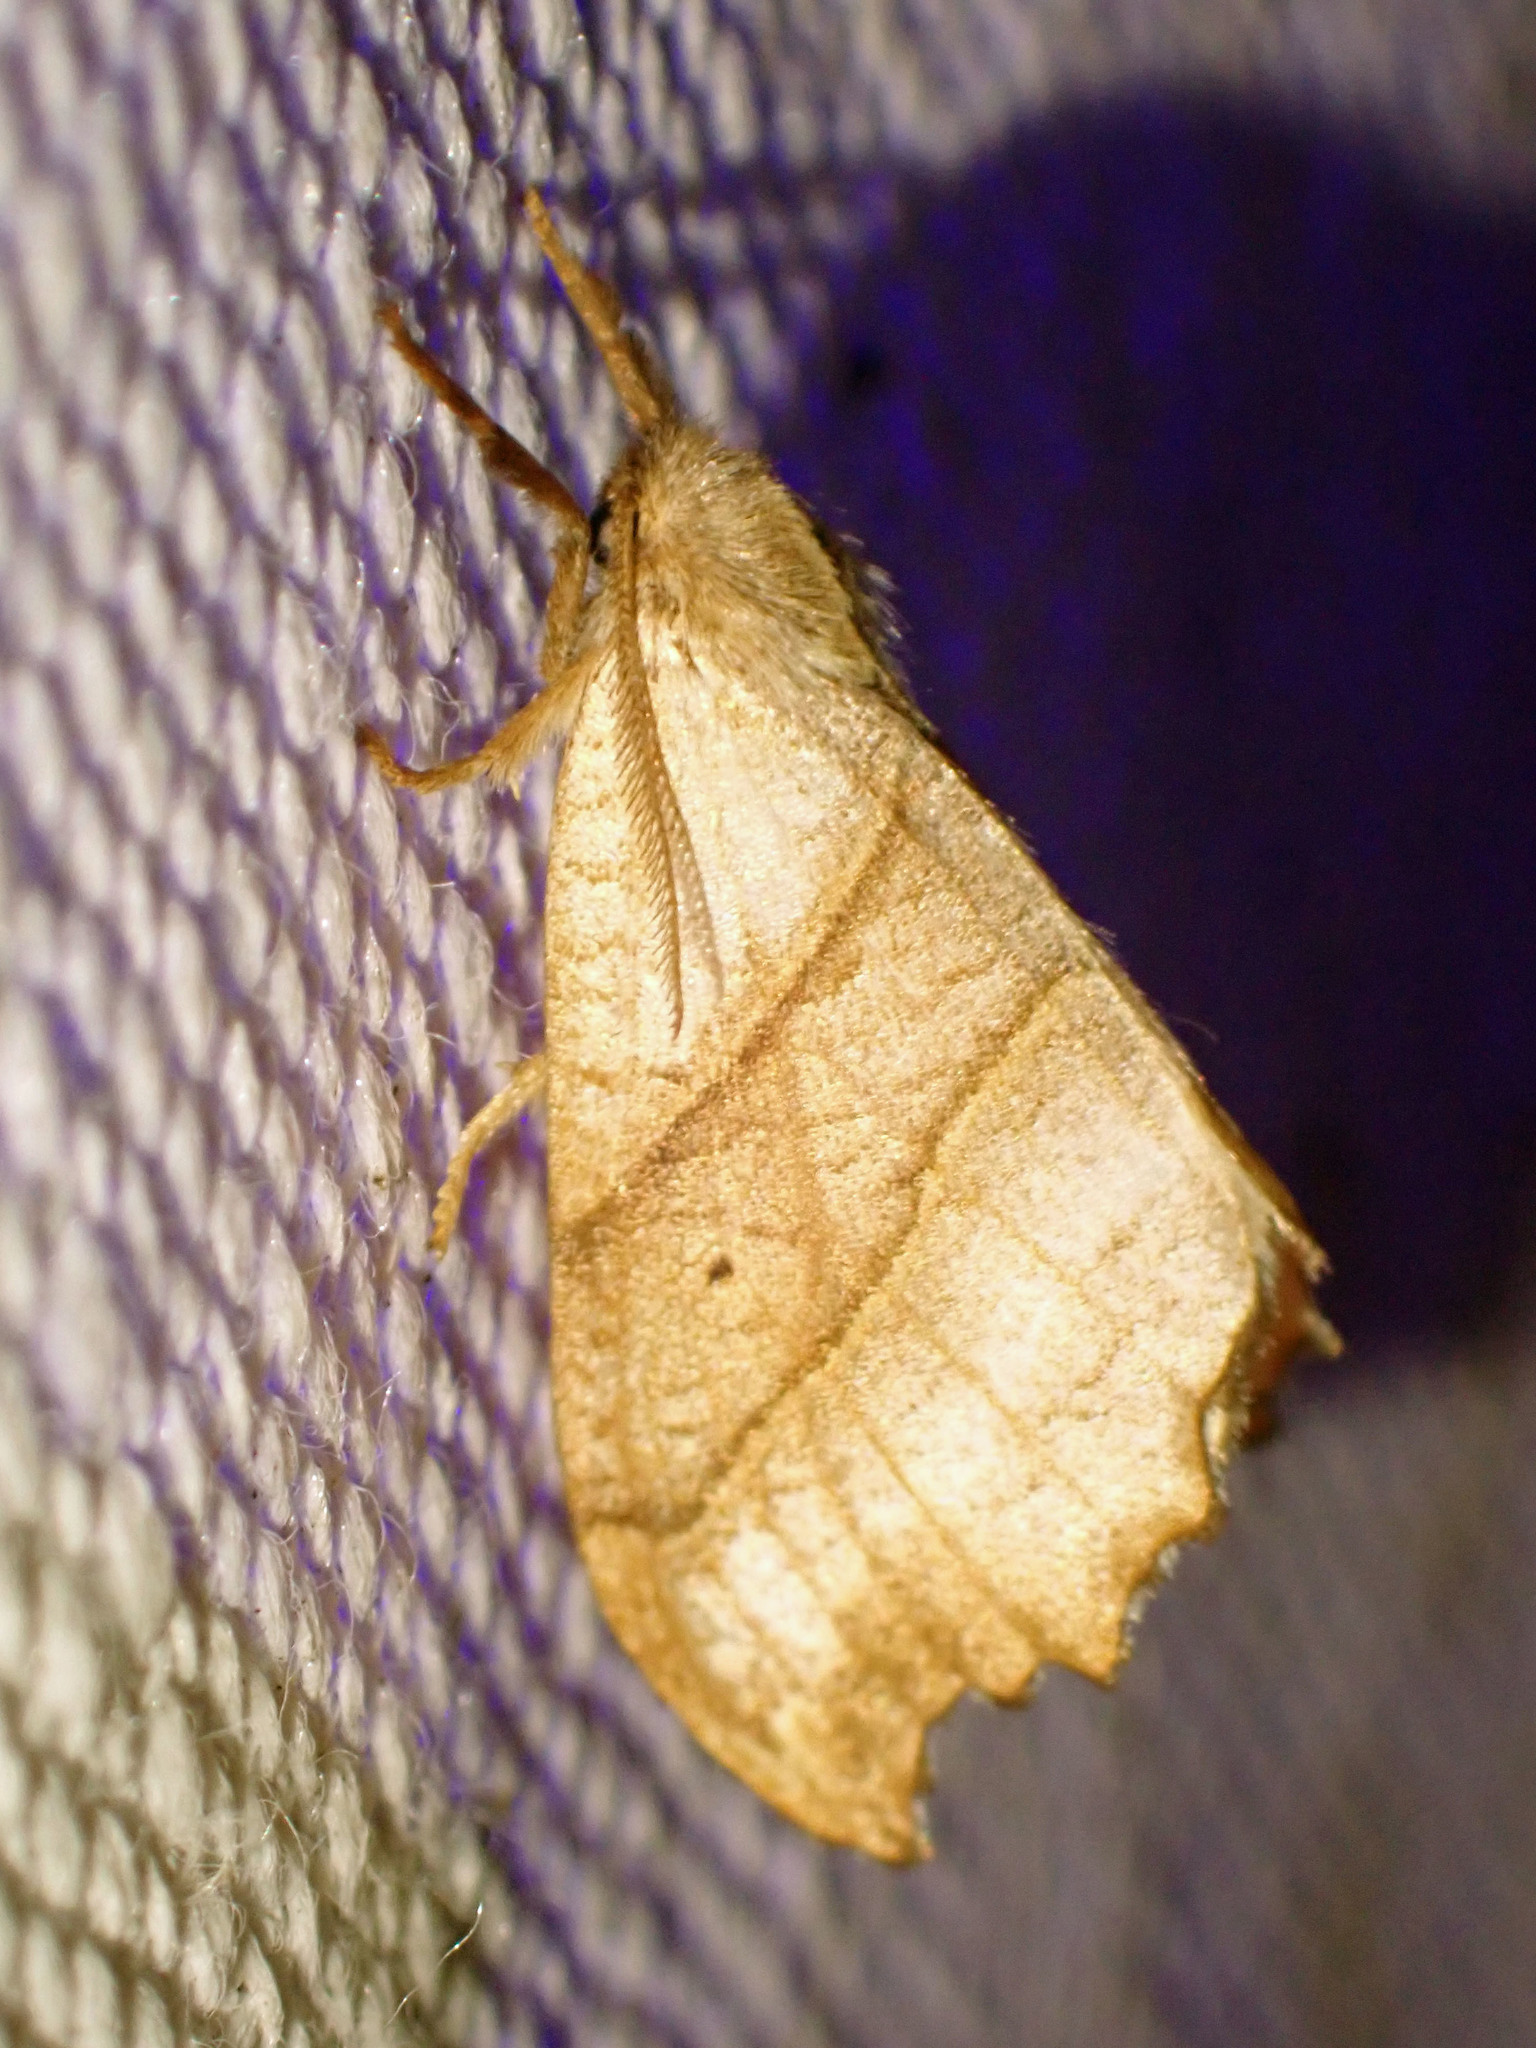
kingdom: Animalia
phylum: Arthropoda
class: Insecta
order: Lepidoptera
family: Drepanidae
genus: Falcaria
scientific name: Falcaria bilineata
